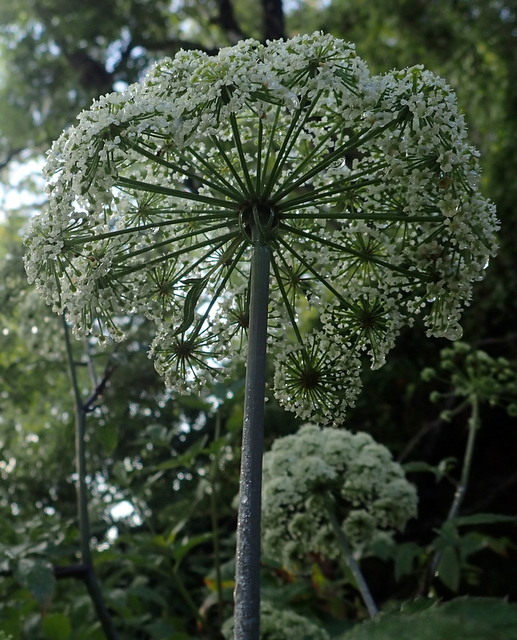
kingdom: Plantae
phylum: Tracheophyta
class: Magnoliopsida
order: Apiales
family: Apiaceae
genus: Cicuta
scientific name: Cicuta maculata
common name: Spotted cowbane
